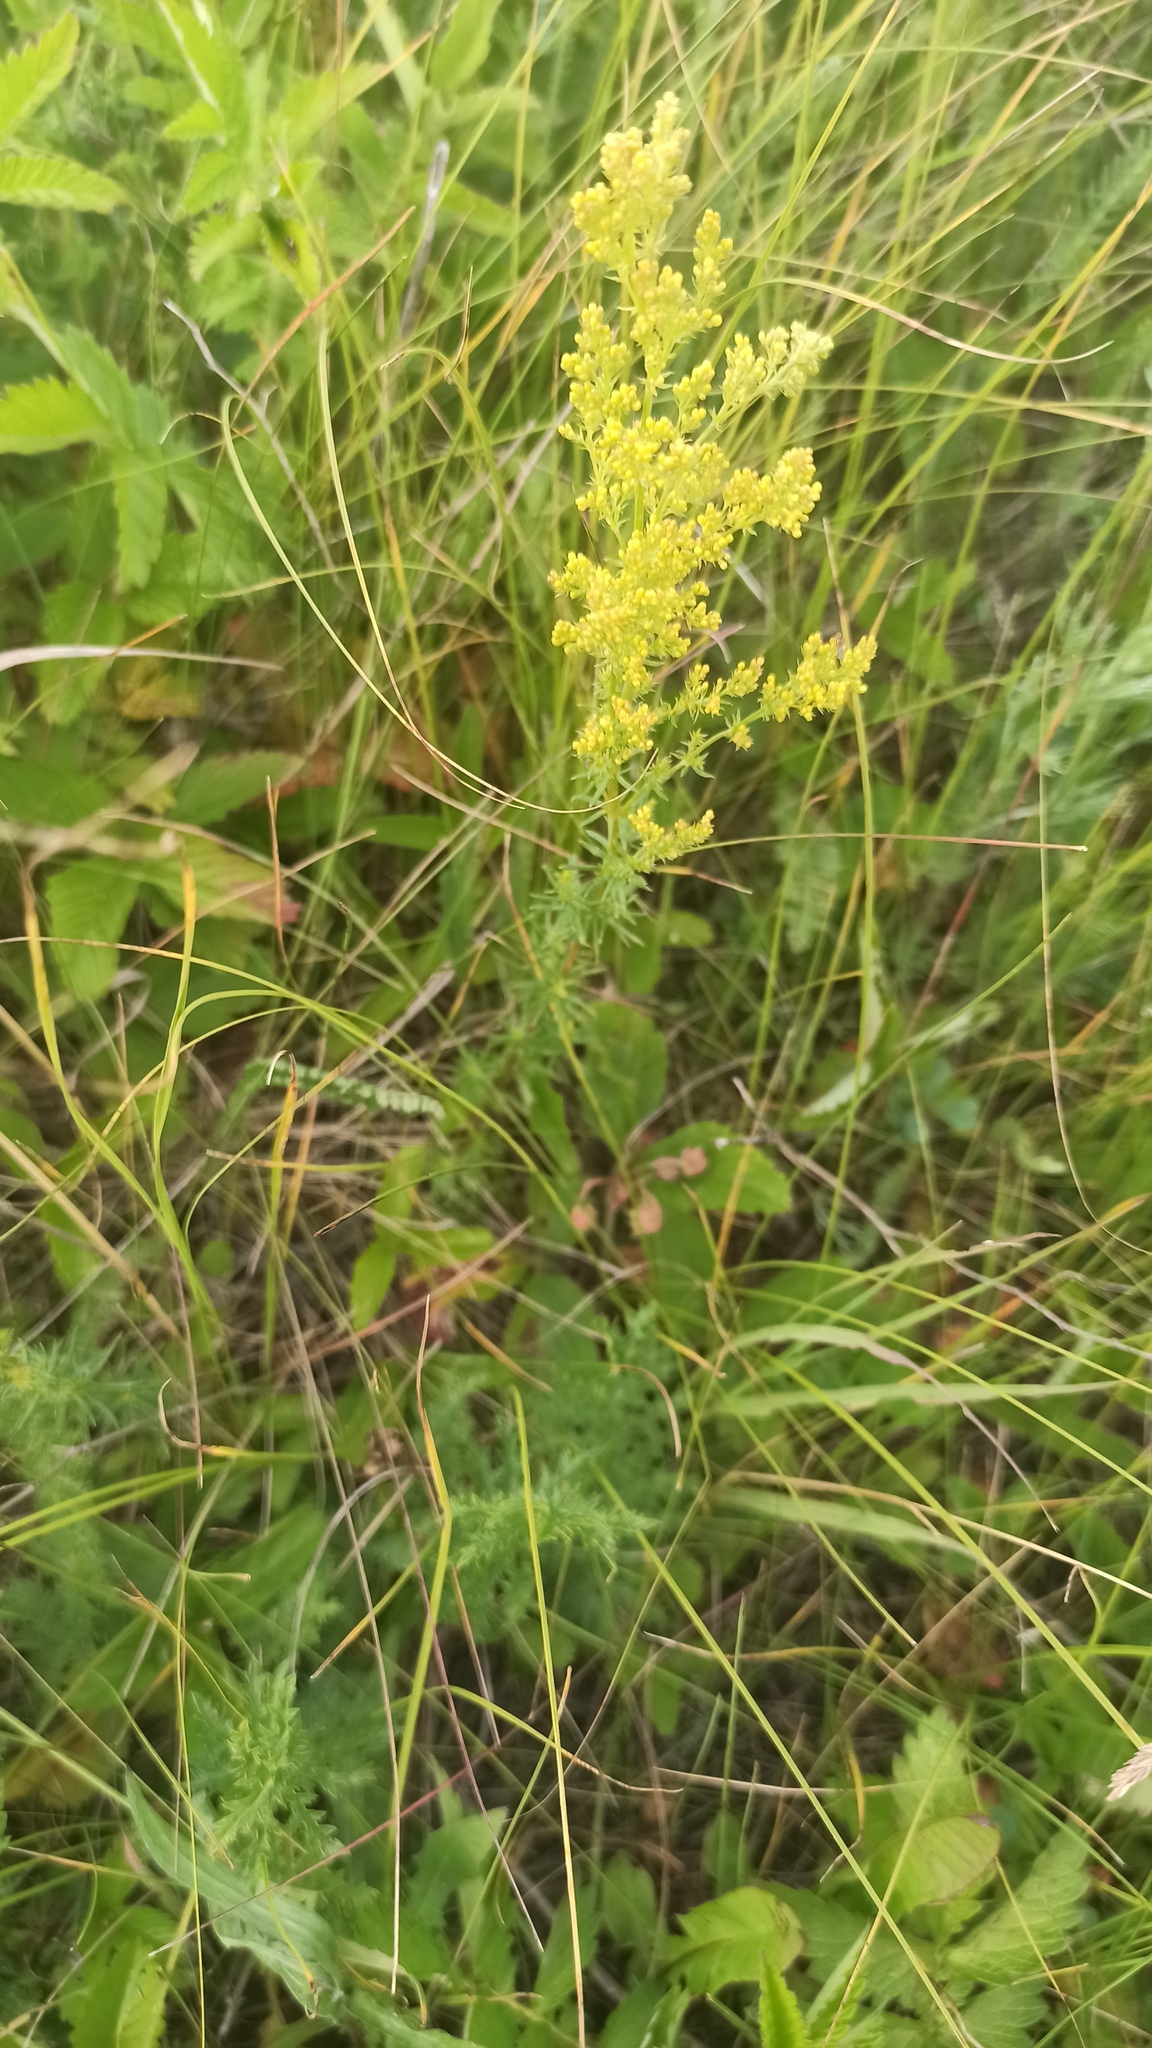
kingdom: Plantae
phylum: Tracheophyta
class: Magnoliopsida
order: Gentianales
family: Rubiaceae
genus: Galium
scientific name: Galium verum
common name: Lady's bedstraw
